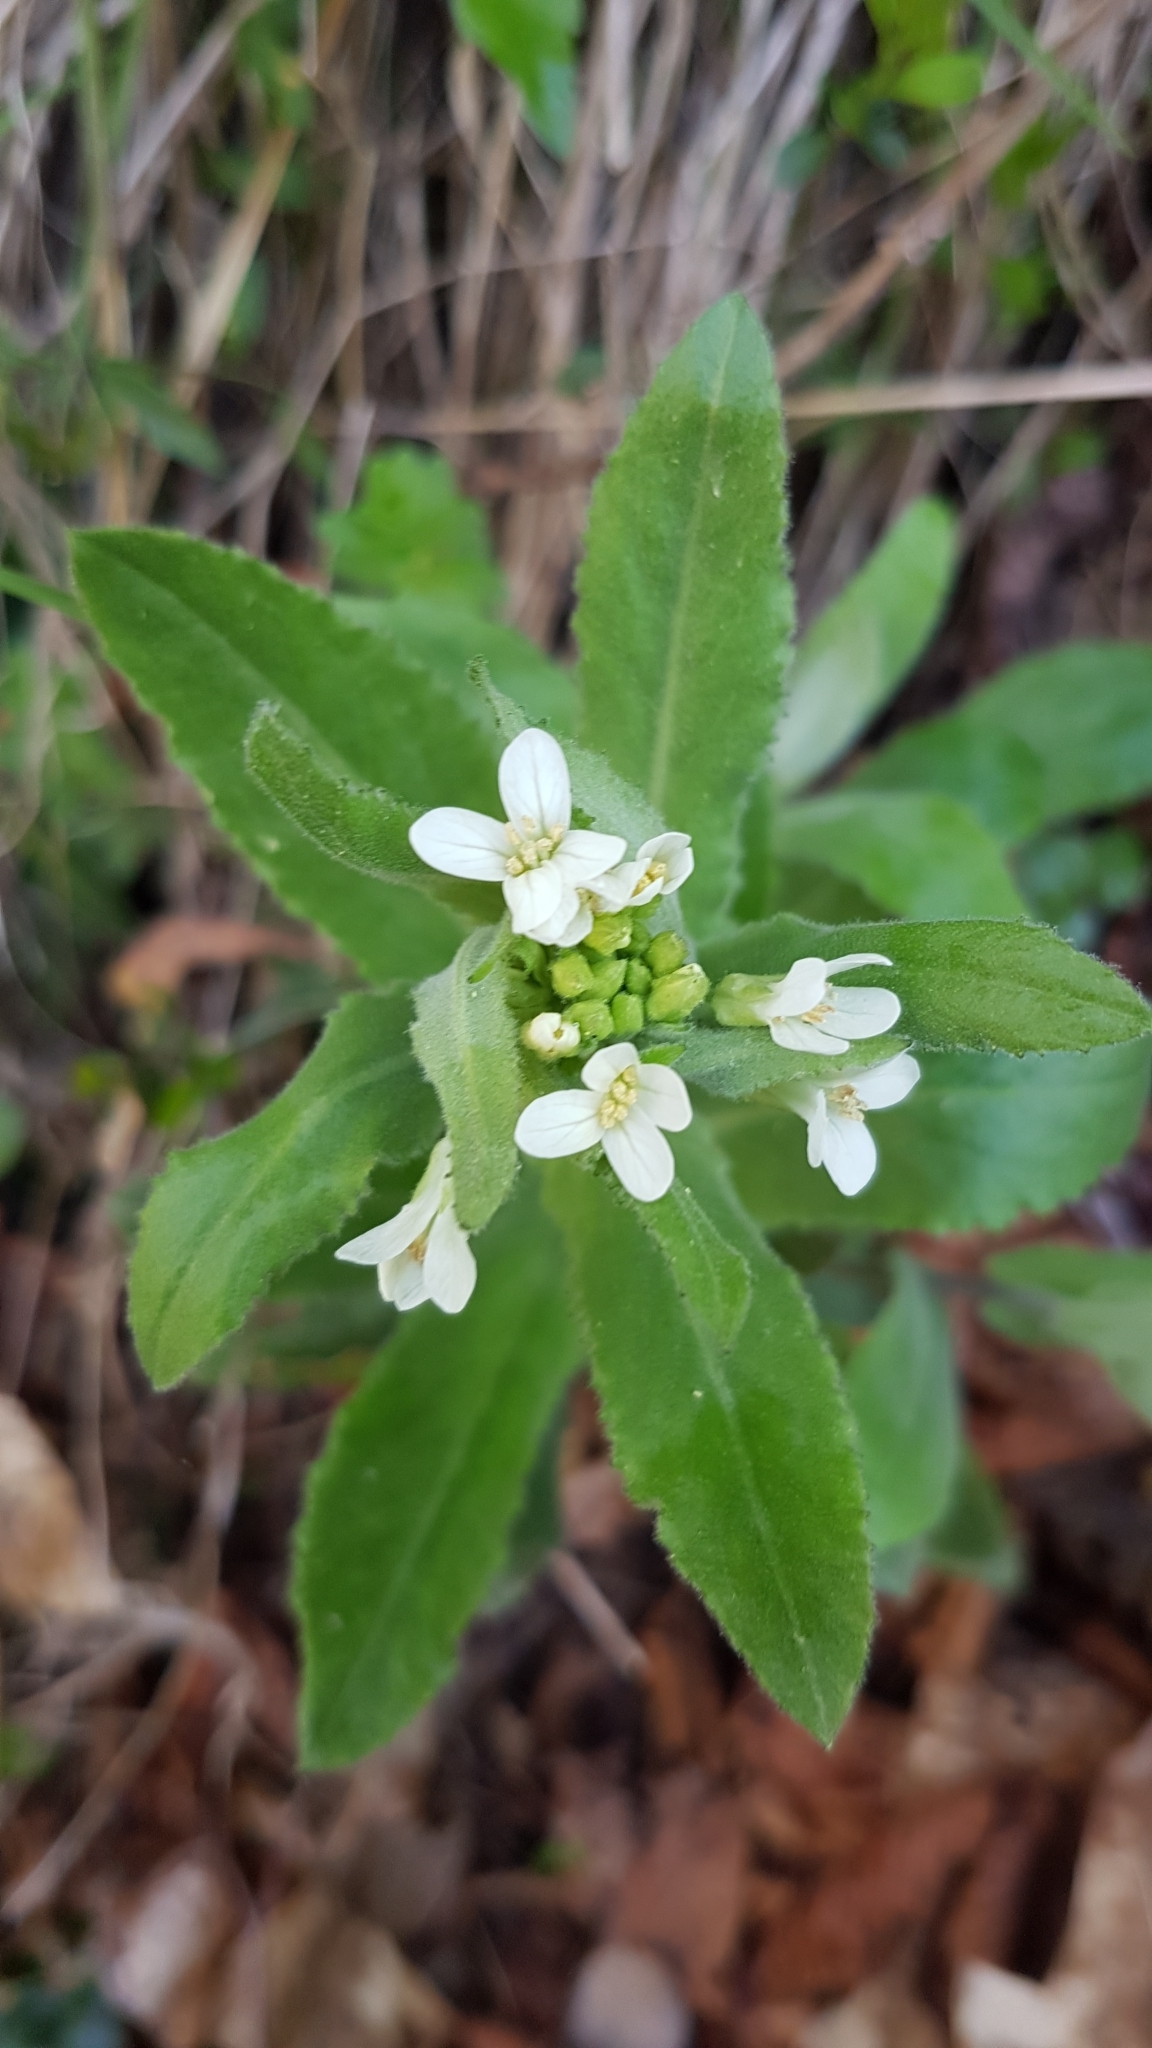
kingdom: Plantae
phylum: Tracheophyta
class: Magnoliopsida
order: Brassicales
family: Brassicaceae
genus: Pseudoturritis
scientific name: Pseudoturritis turrita
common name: Tower cress
